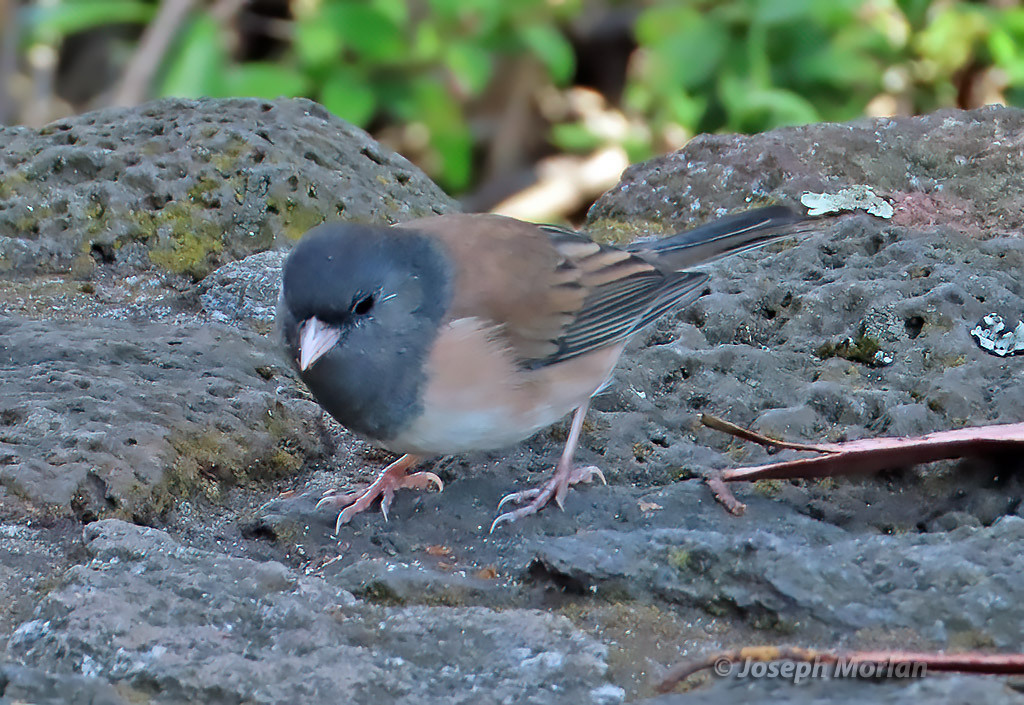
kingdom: Animalia
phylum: Chordata
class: Aves
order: Passeriformes
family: Passerellidae
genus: Junco
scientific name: Junco hyemalis
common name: Dark-eyed junco
